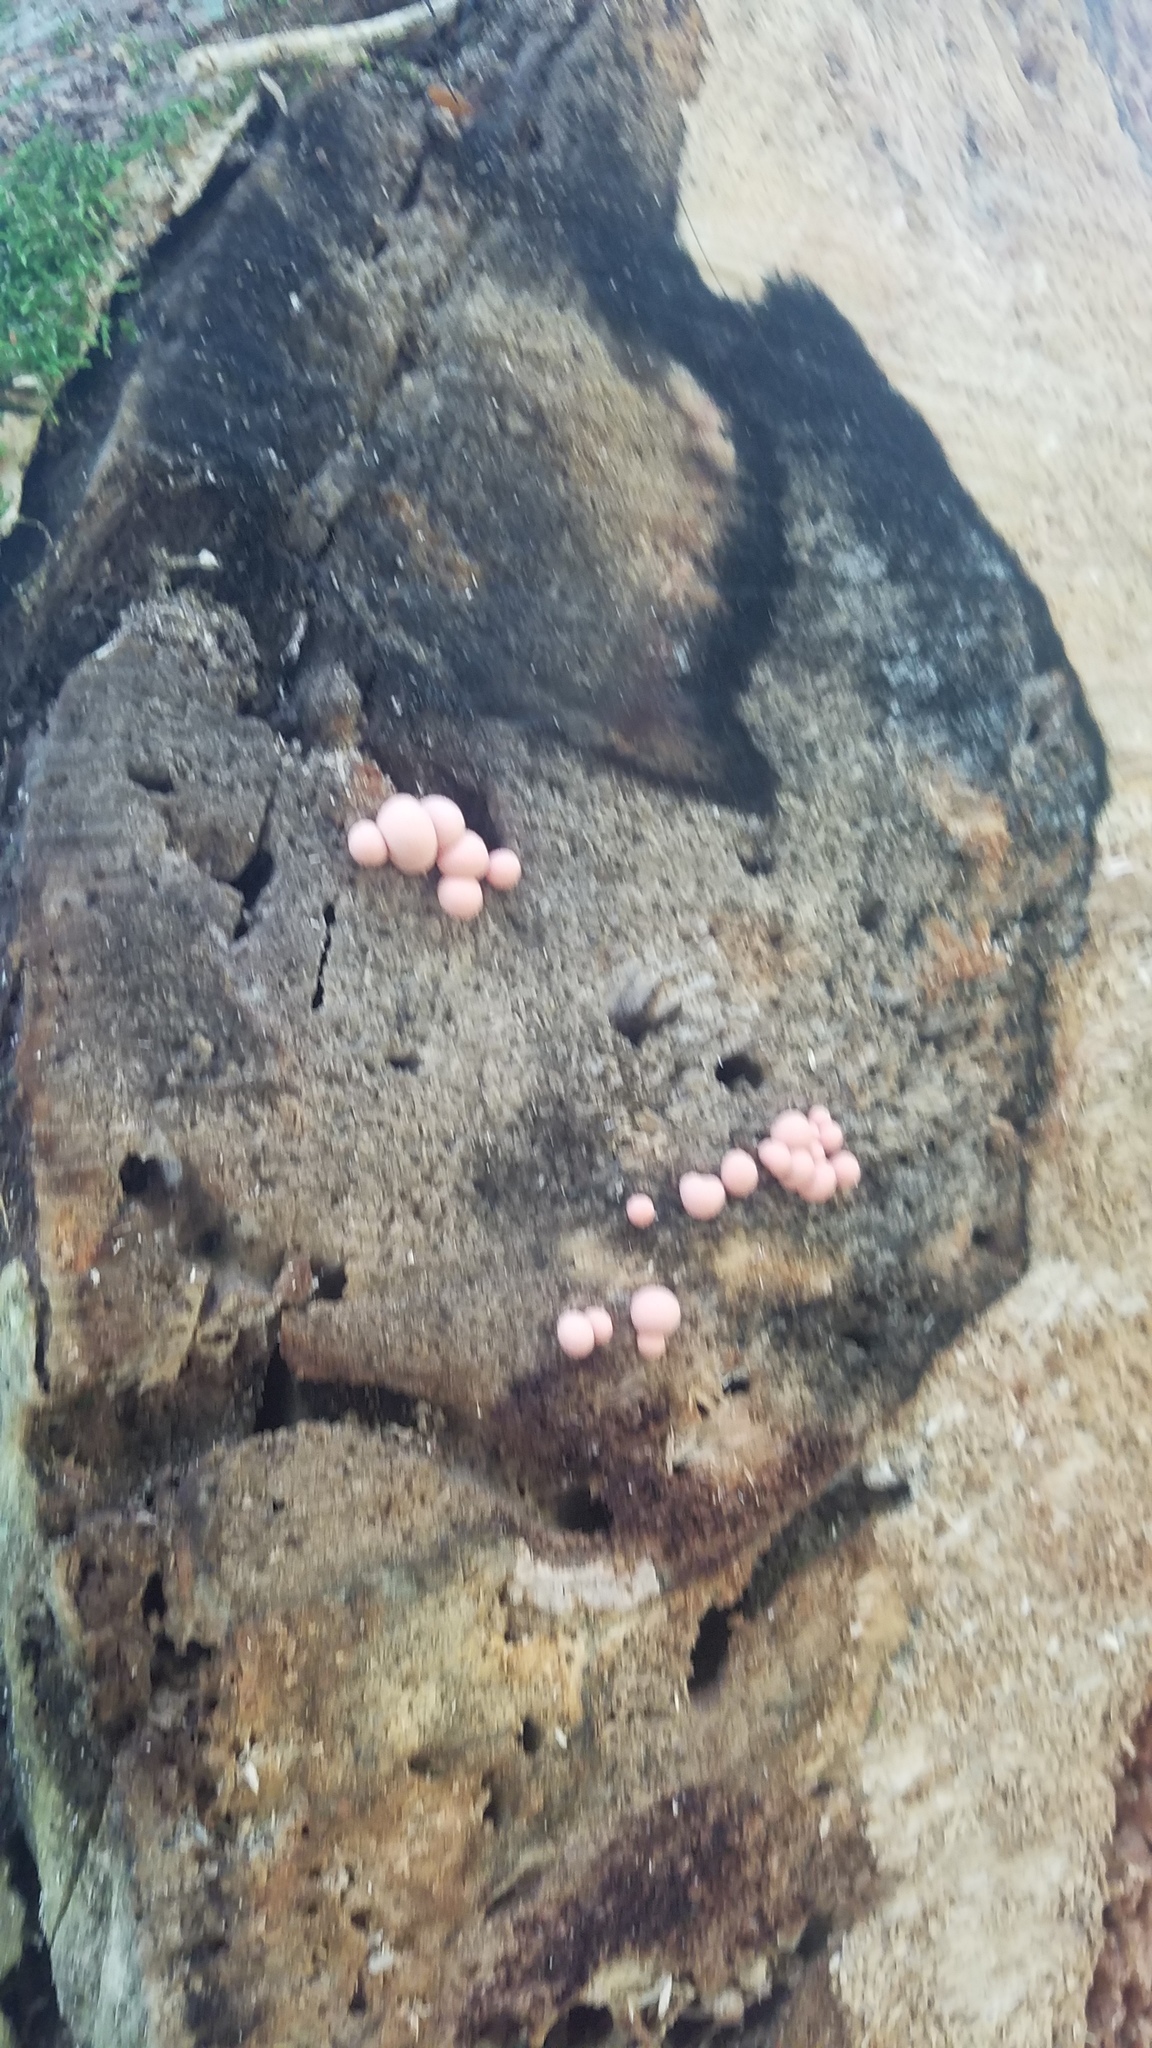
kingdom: Protozoa
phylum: Mycetozoa
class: Myxomycetes
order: Cribrariales
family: Tubiferaceae
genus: Lycogala
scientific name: Lycogala epidendrum
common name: Wolf's milk
